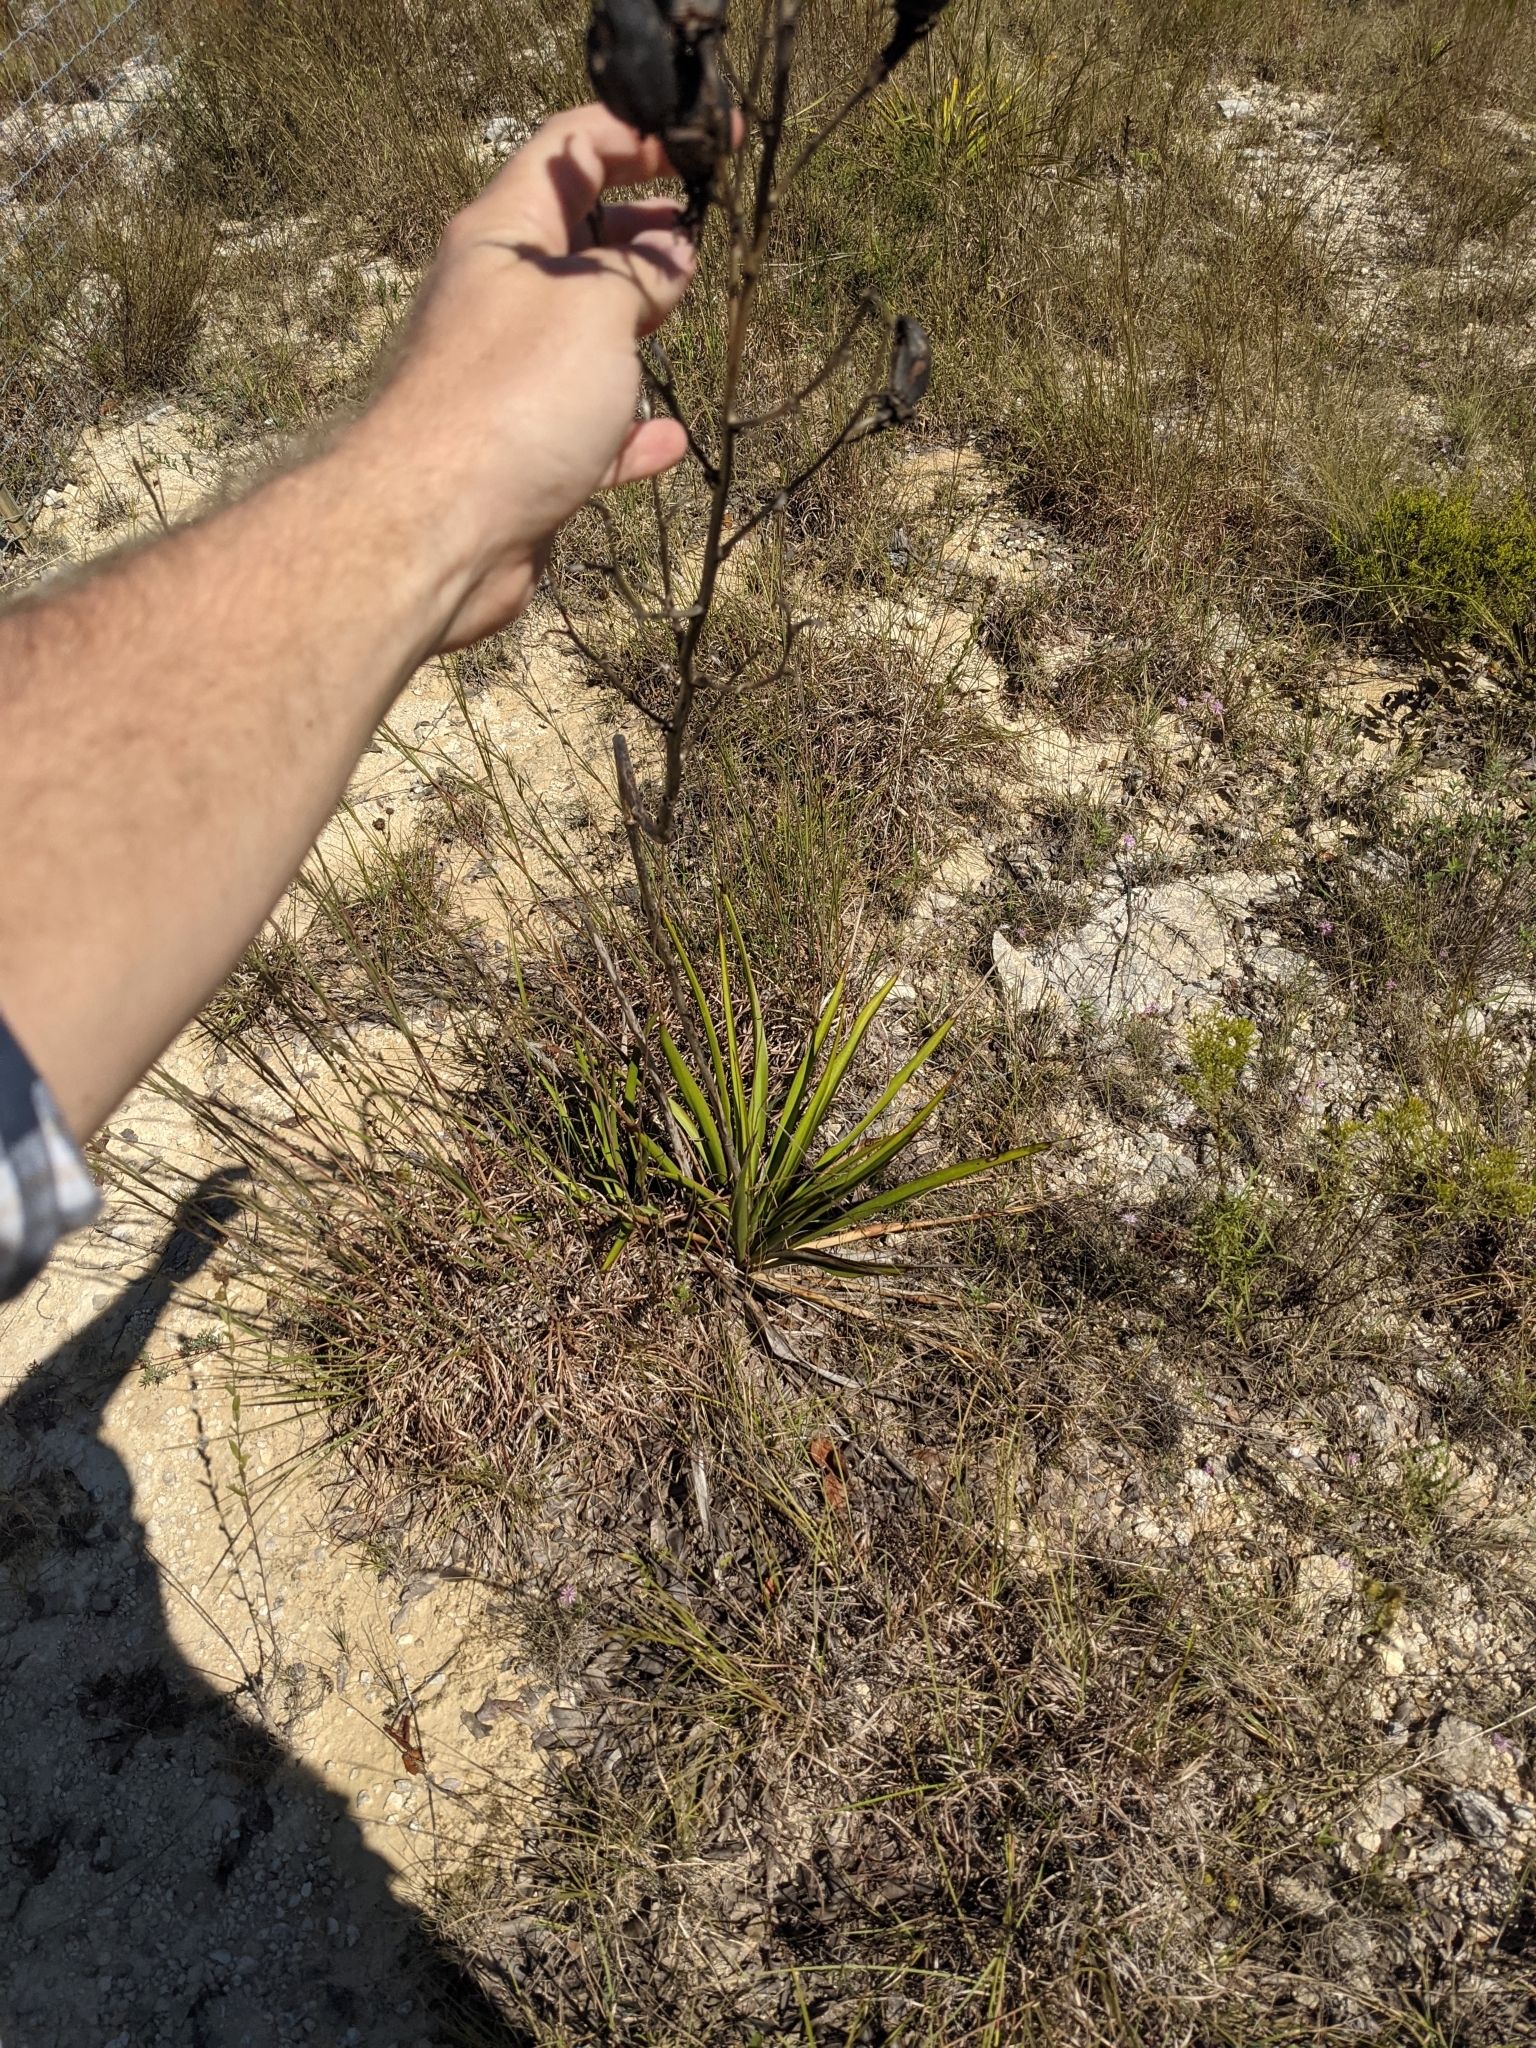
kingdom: Plantae
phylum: Tracheophyta
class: Liliopsida
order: Asparagales
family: Asparagaceae
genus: Yucca
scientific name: Yucca rupicola
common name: Twisted-leaf spanish-dagger
